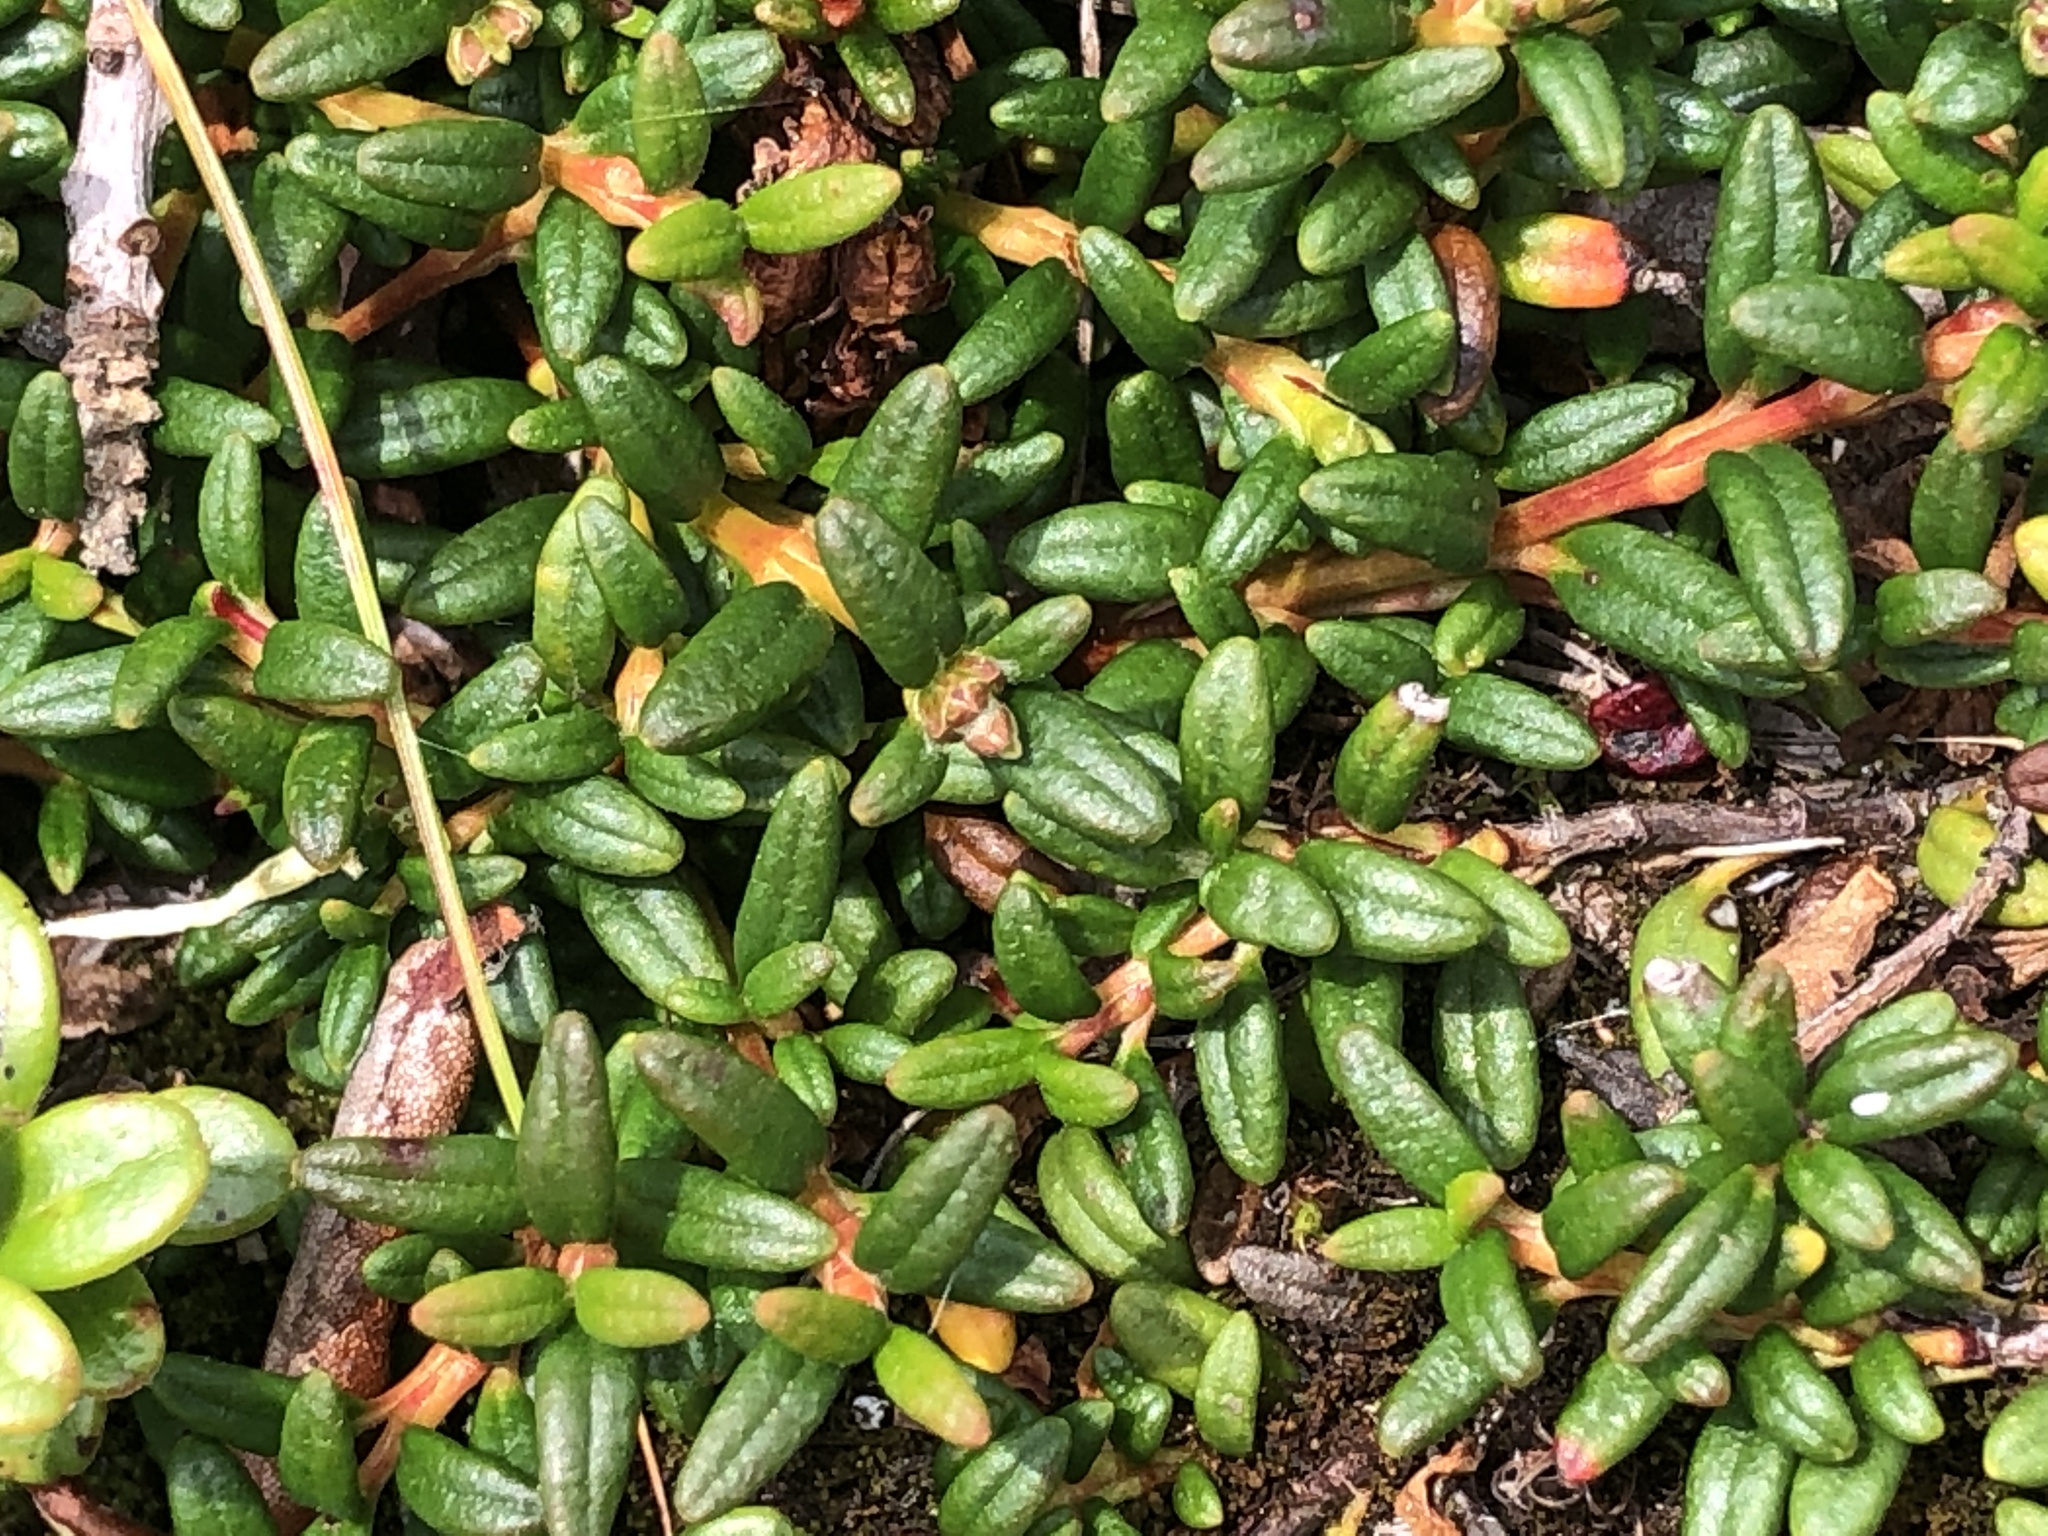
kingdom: Plantae
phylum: Tracheophyta
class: Magnoliopsida
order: Ericales
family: Ericaceae
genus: Kalmia
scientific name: Kalmia procumbens
